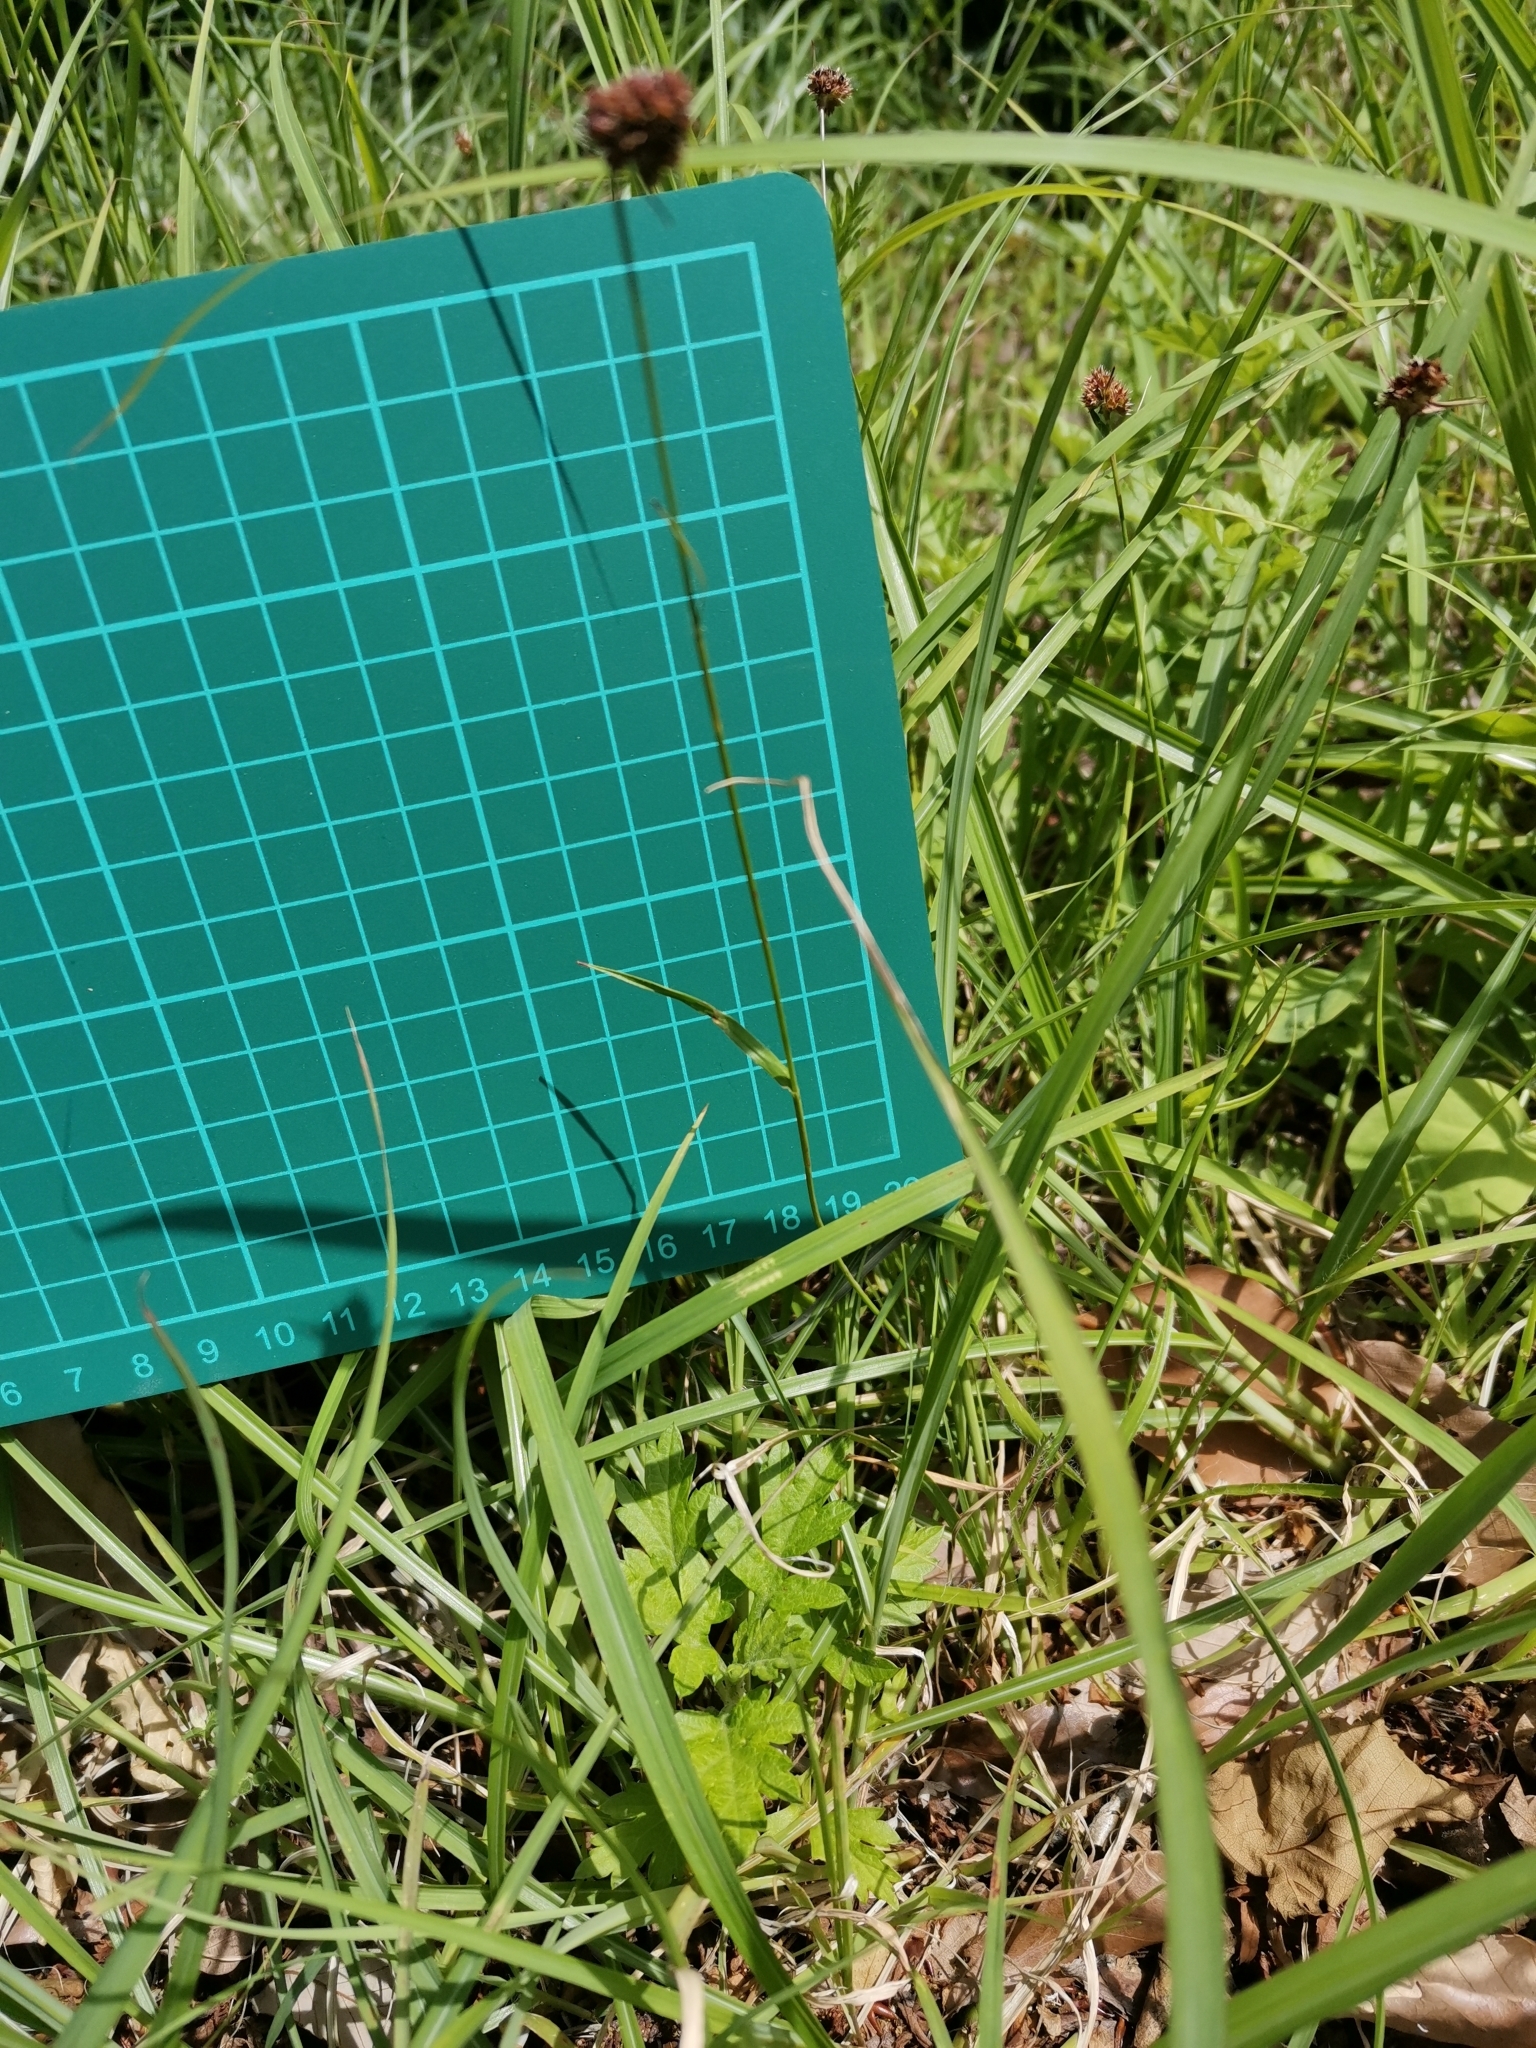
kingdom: Plantae
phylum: Tracheophyta
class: Liliopsida
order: Poales
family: Juncaceae
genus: Luzula
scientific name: Luzula capitata
